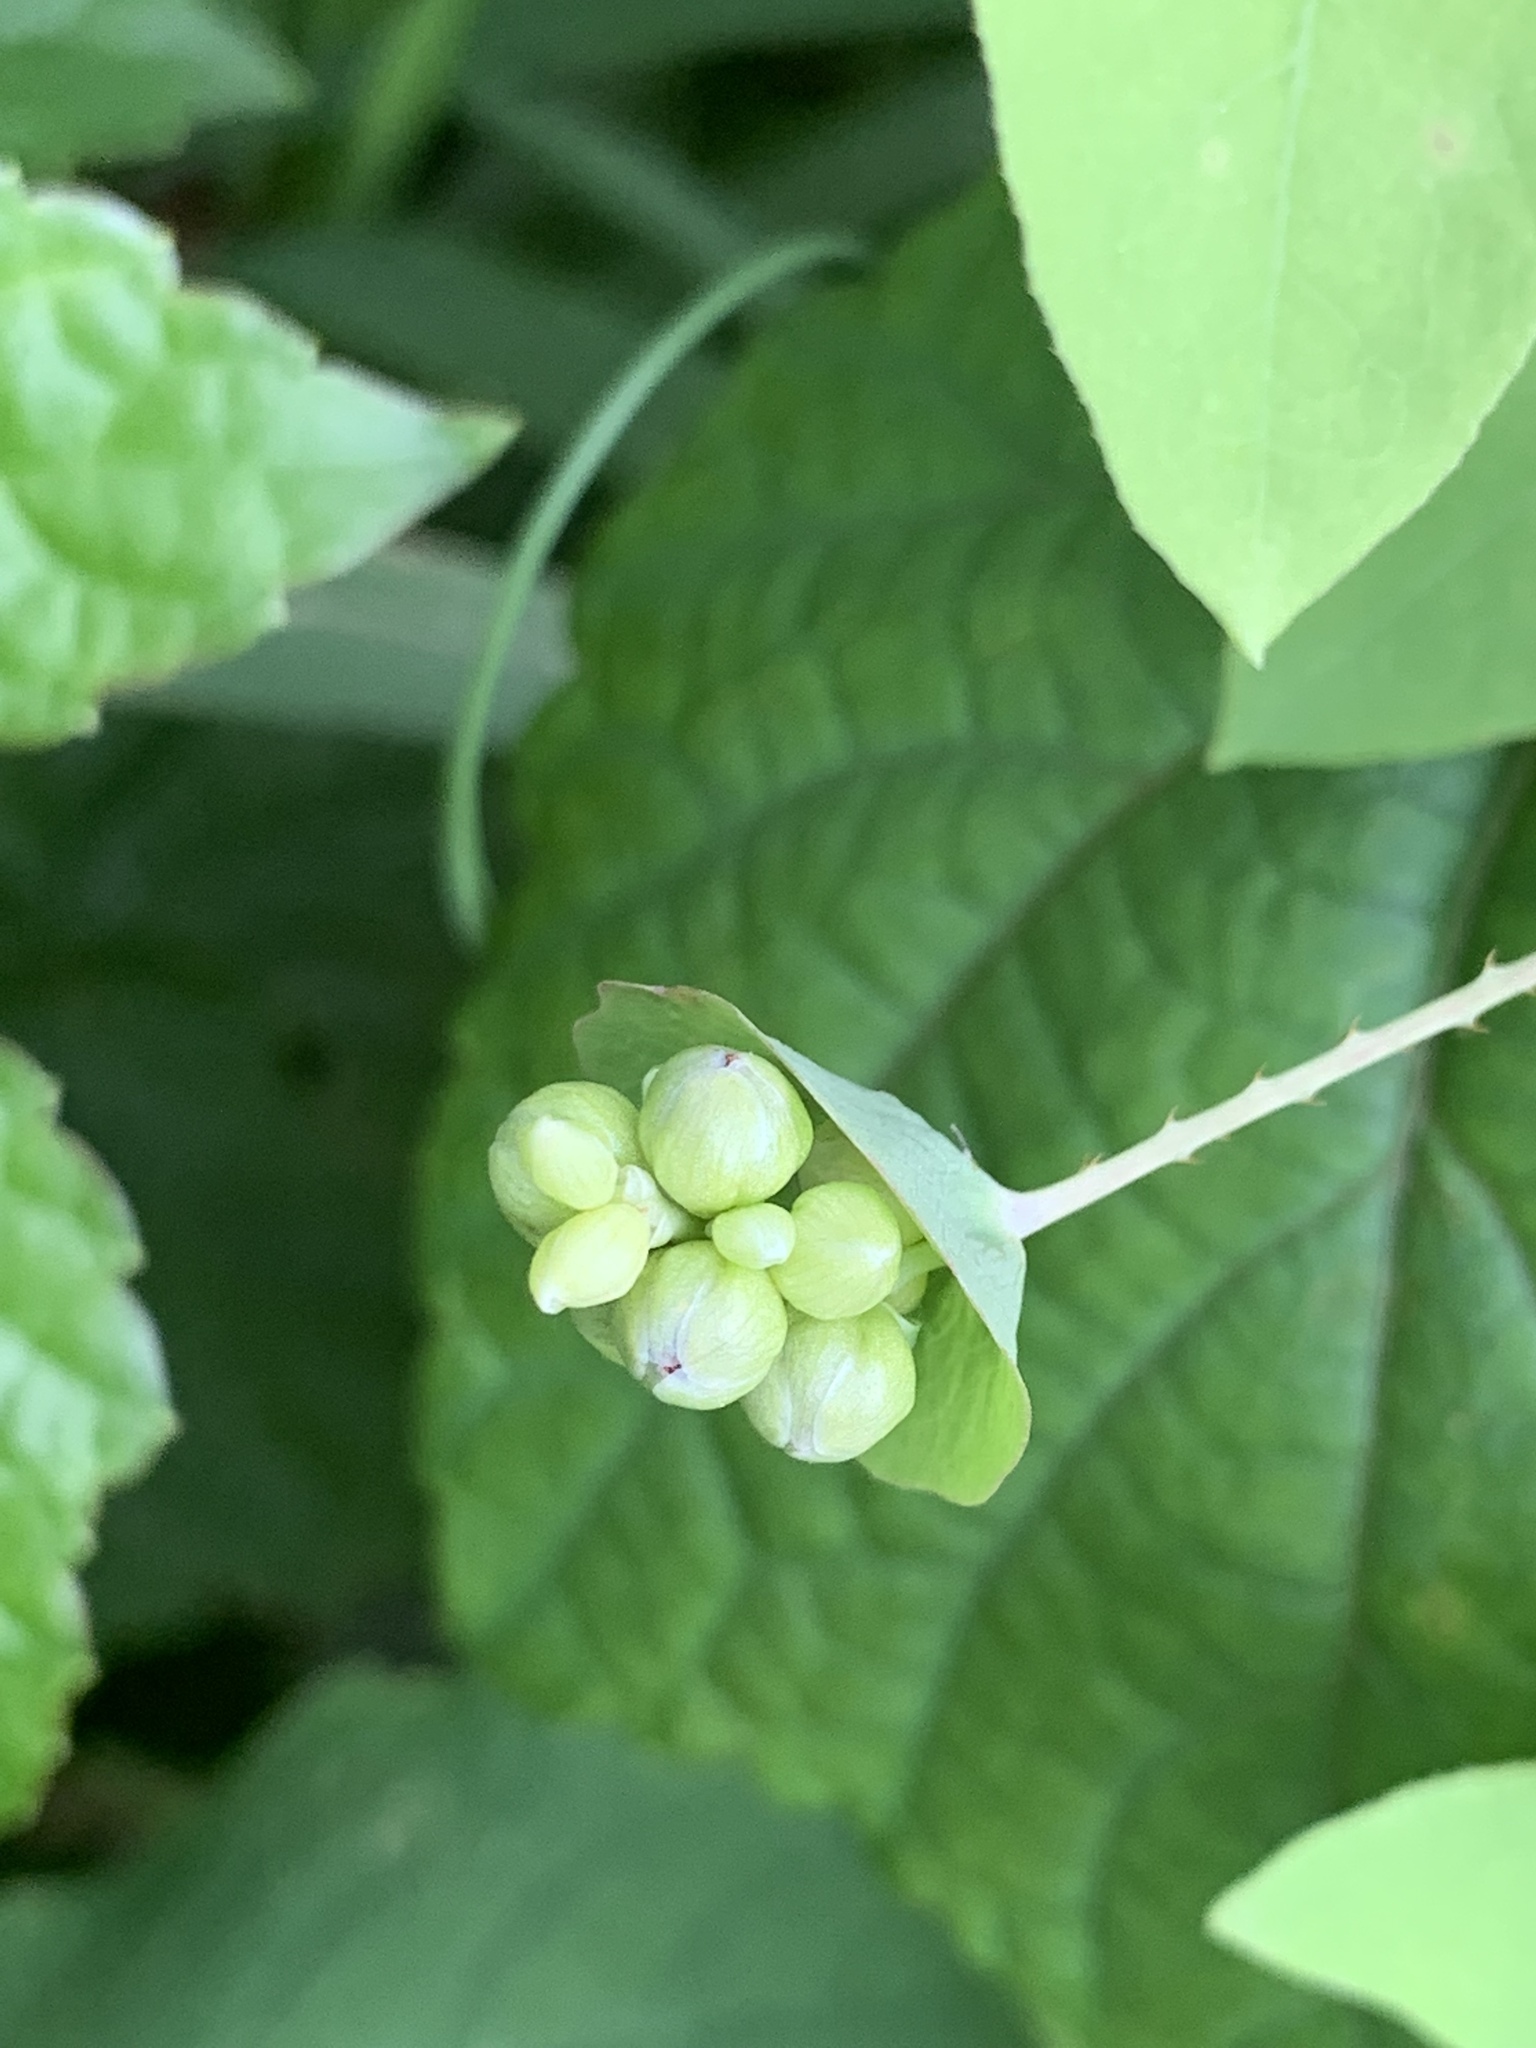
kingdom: Plantae
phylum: Tracheophyta
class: Magnoliopsida
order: Caryophyllales
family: Polygonaceae
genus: Persicaria
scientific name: Persicaria perfoliata
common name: Asiatic tearthumb
